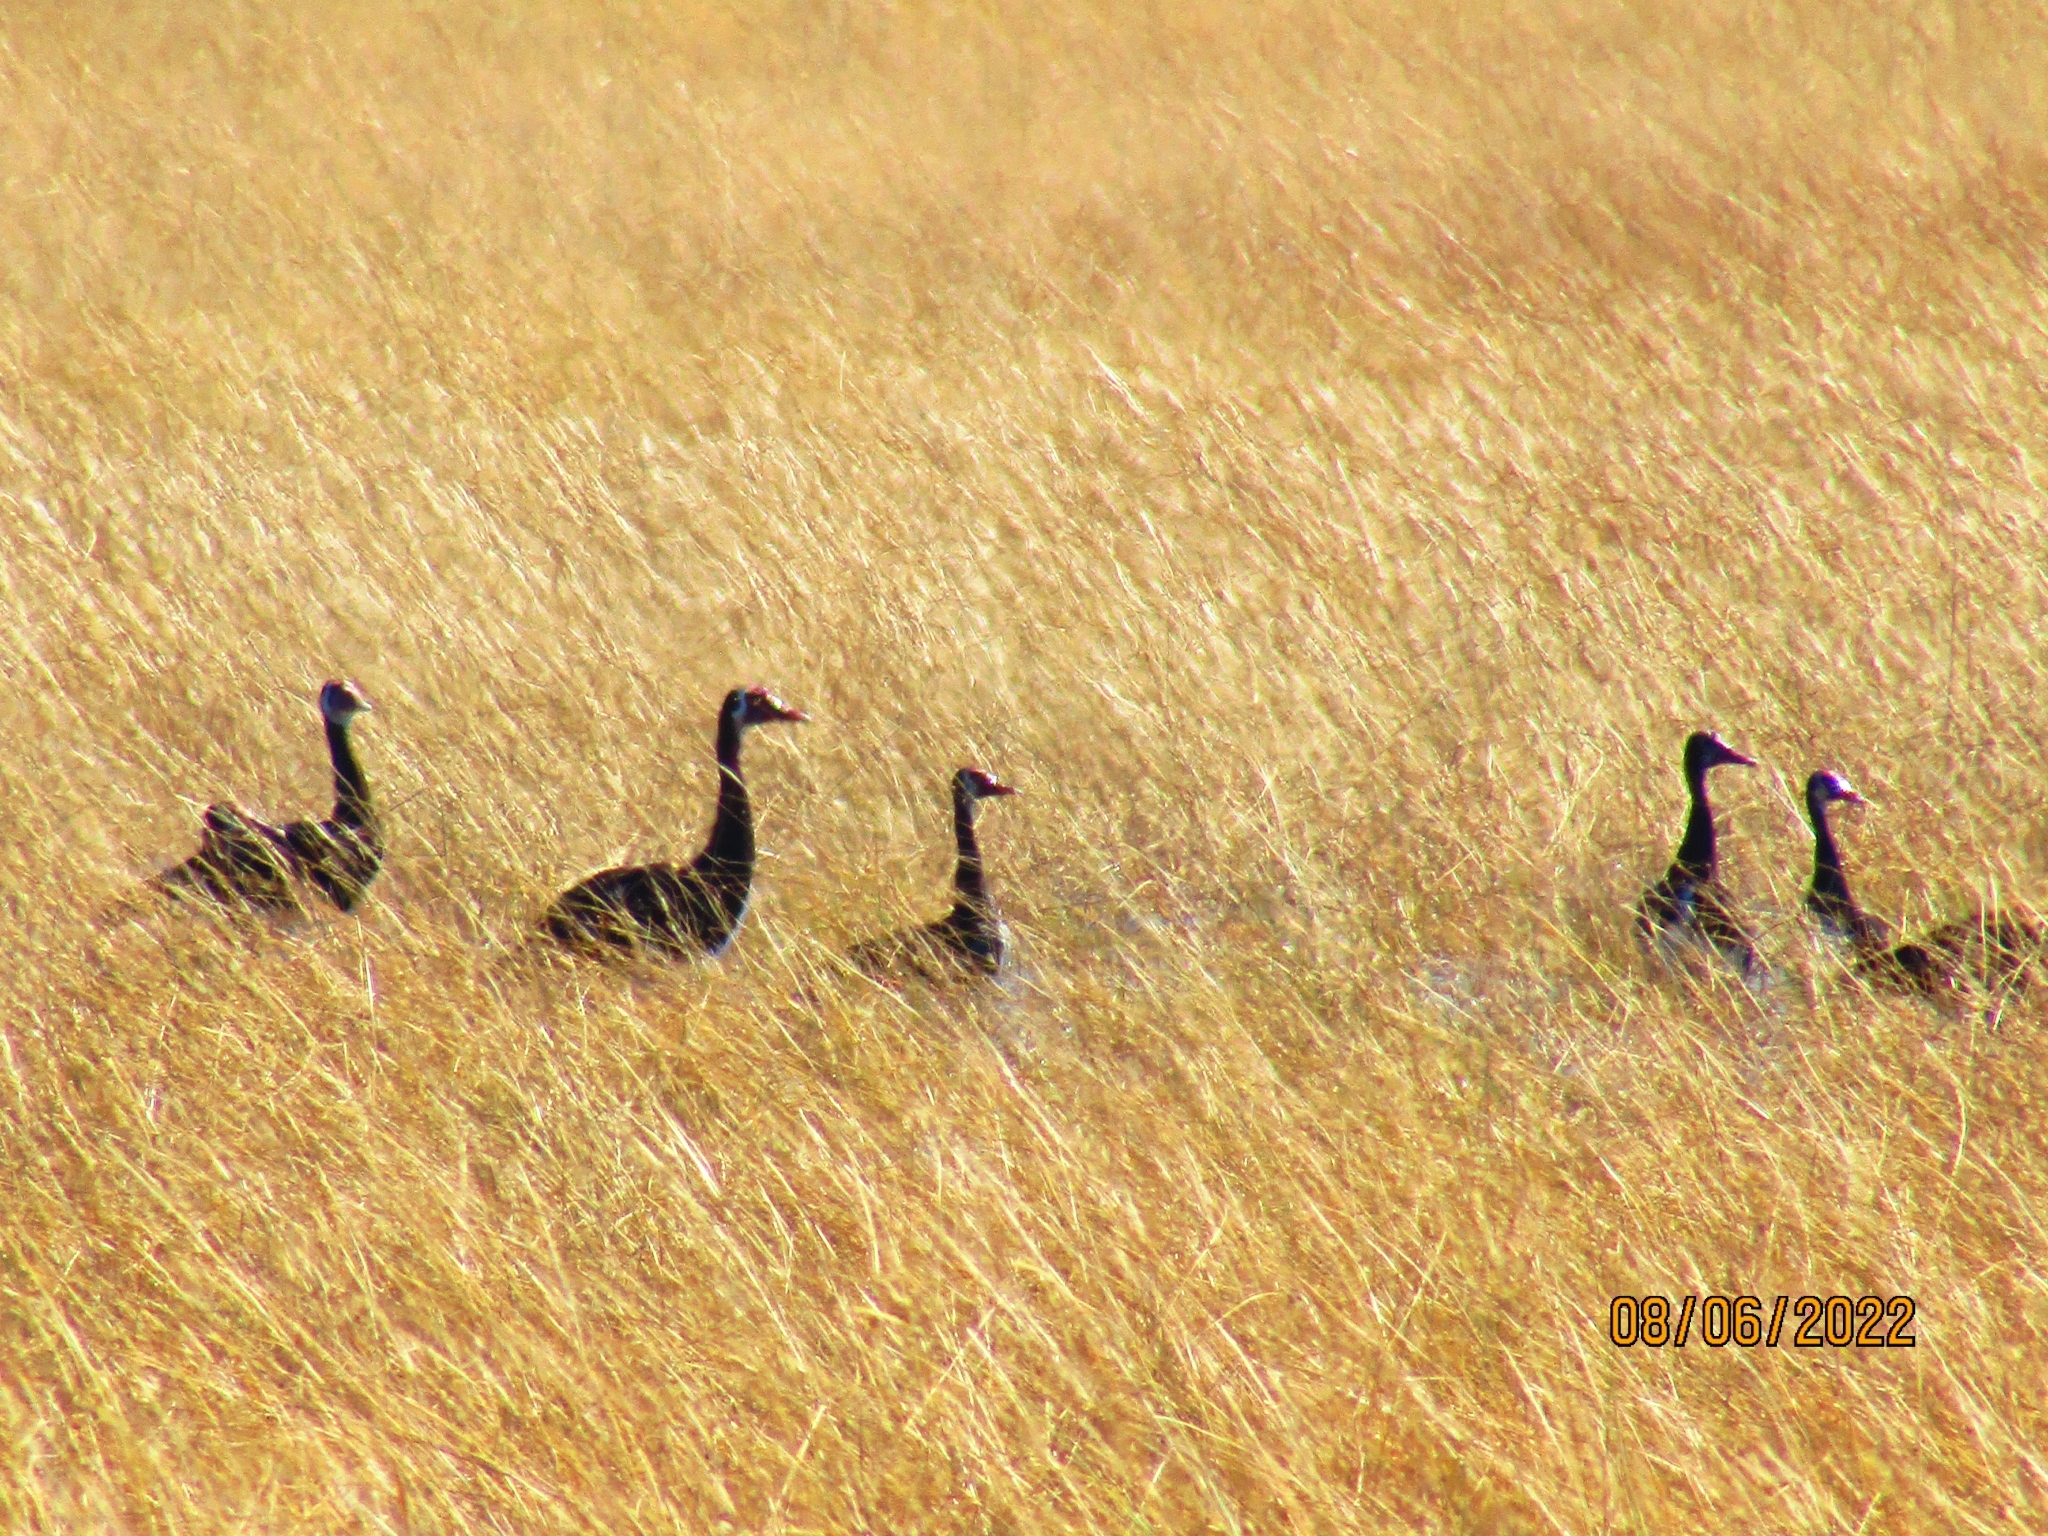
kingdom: Animalia
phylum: Chordata
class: Aves
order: Anseriformes
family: Anatidae
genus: Plectropterus
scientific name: Plectropterus gambensis
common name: Spur-winged goose
